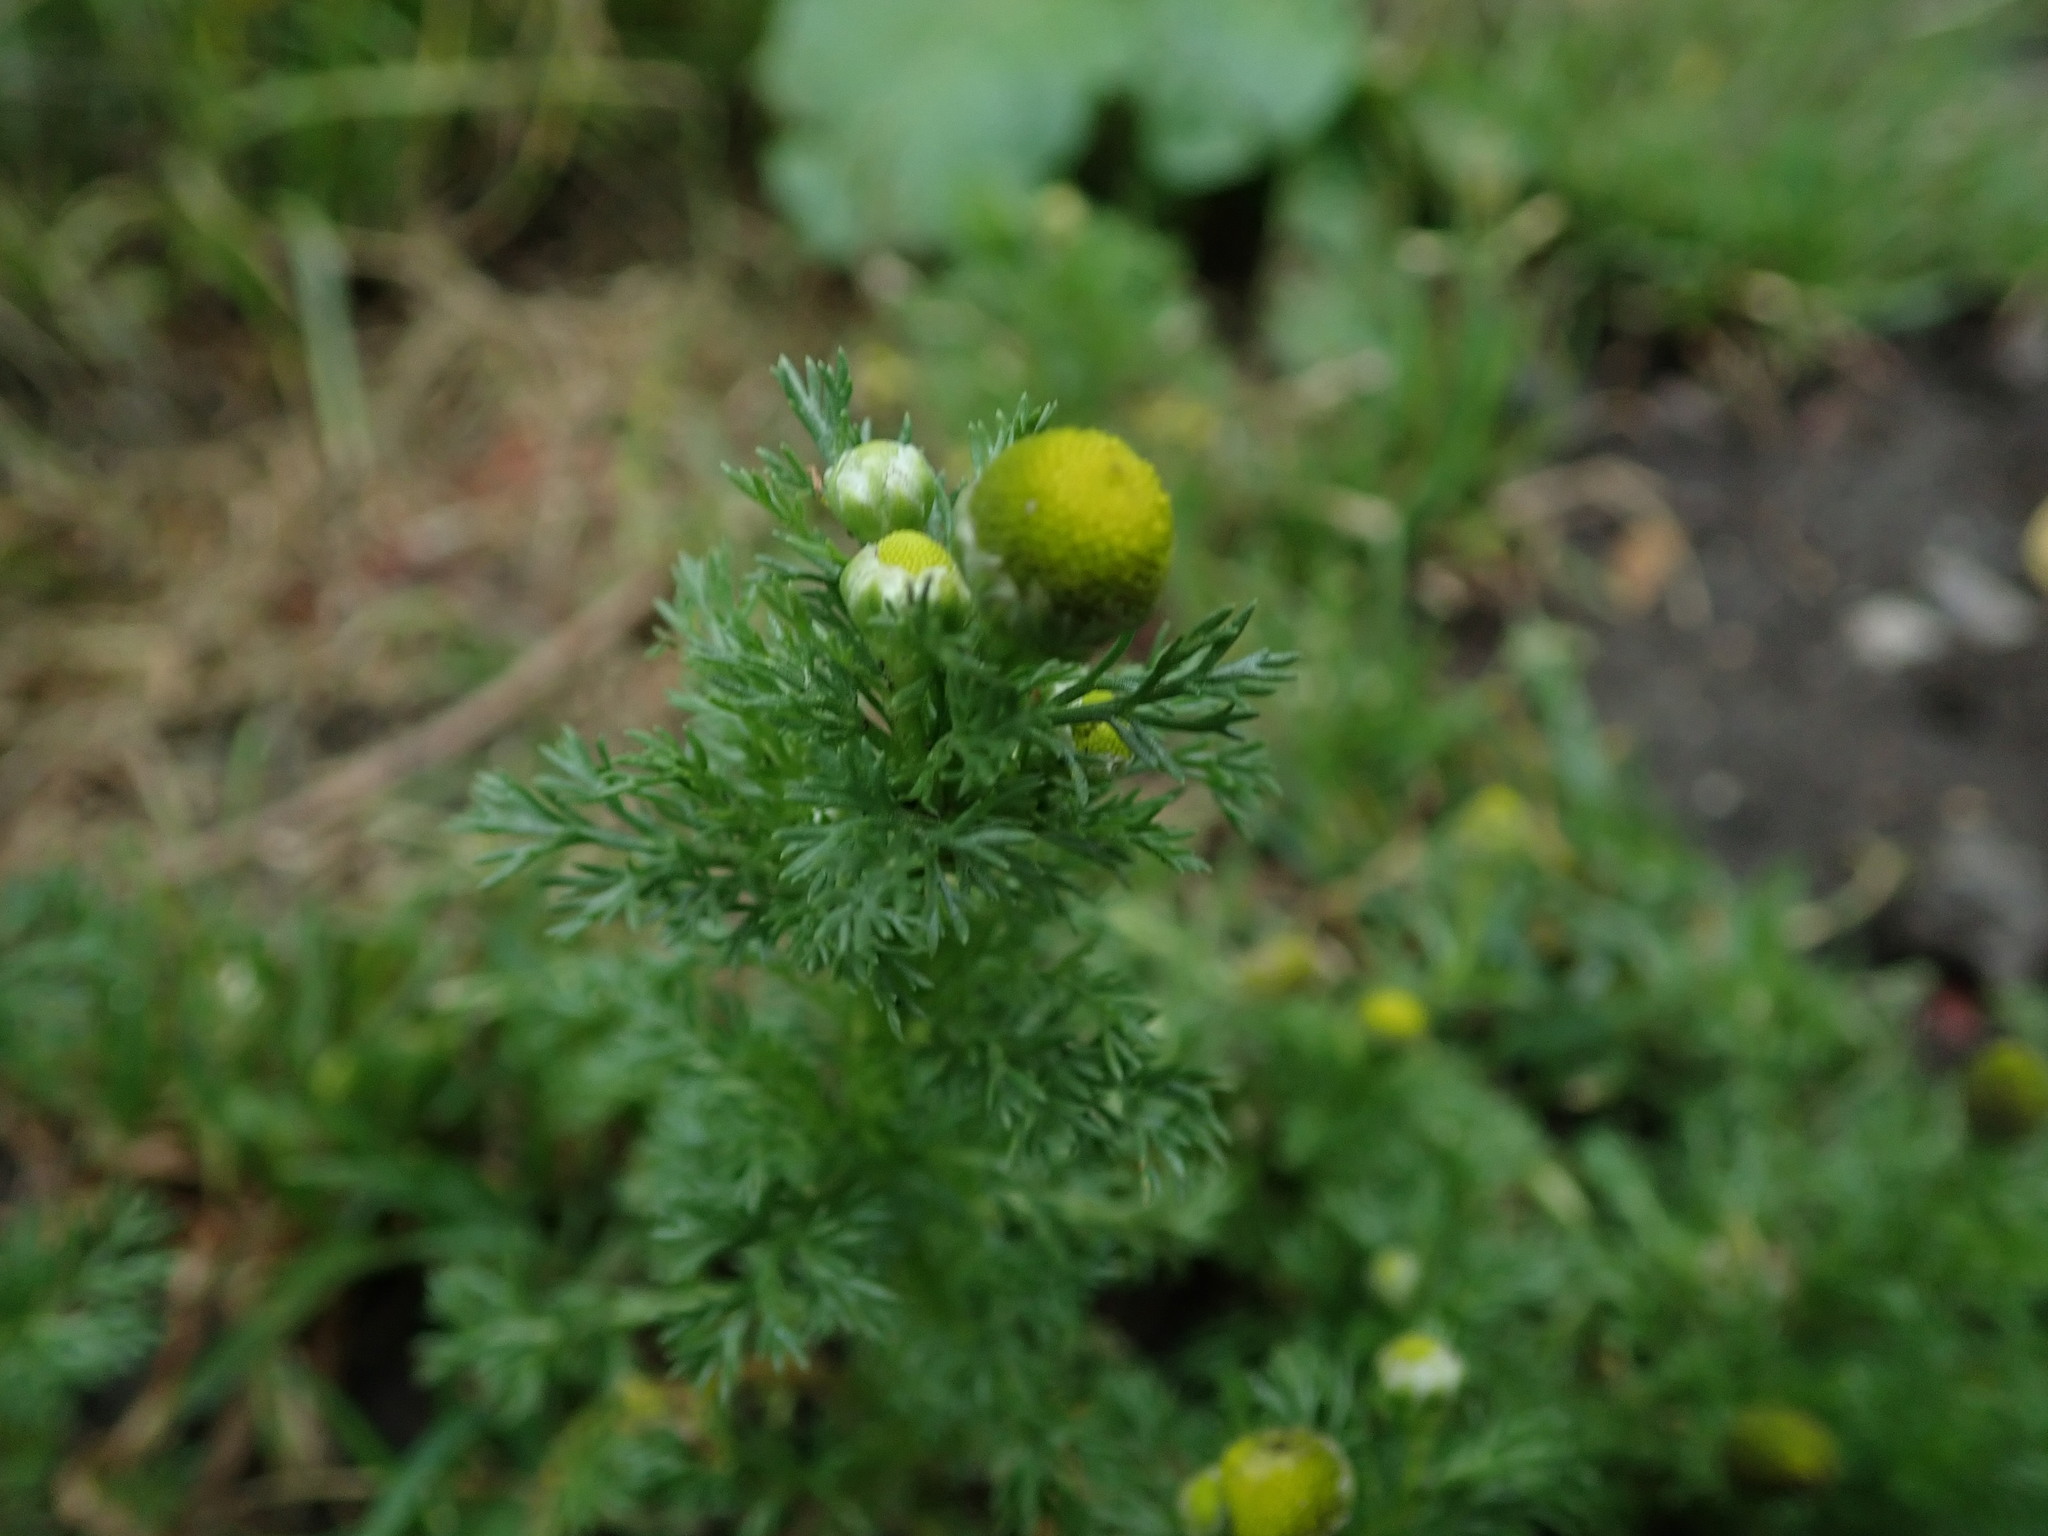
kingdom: Plantae
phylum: Tracheophyta
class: Magnoliopsida
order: Asterales
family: Asteraceae
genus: Matricaria
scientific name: Matricaria discoidea
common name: Disc mayweed
